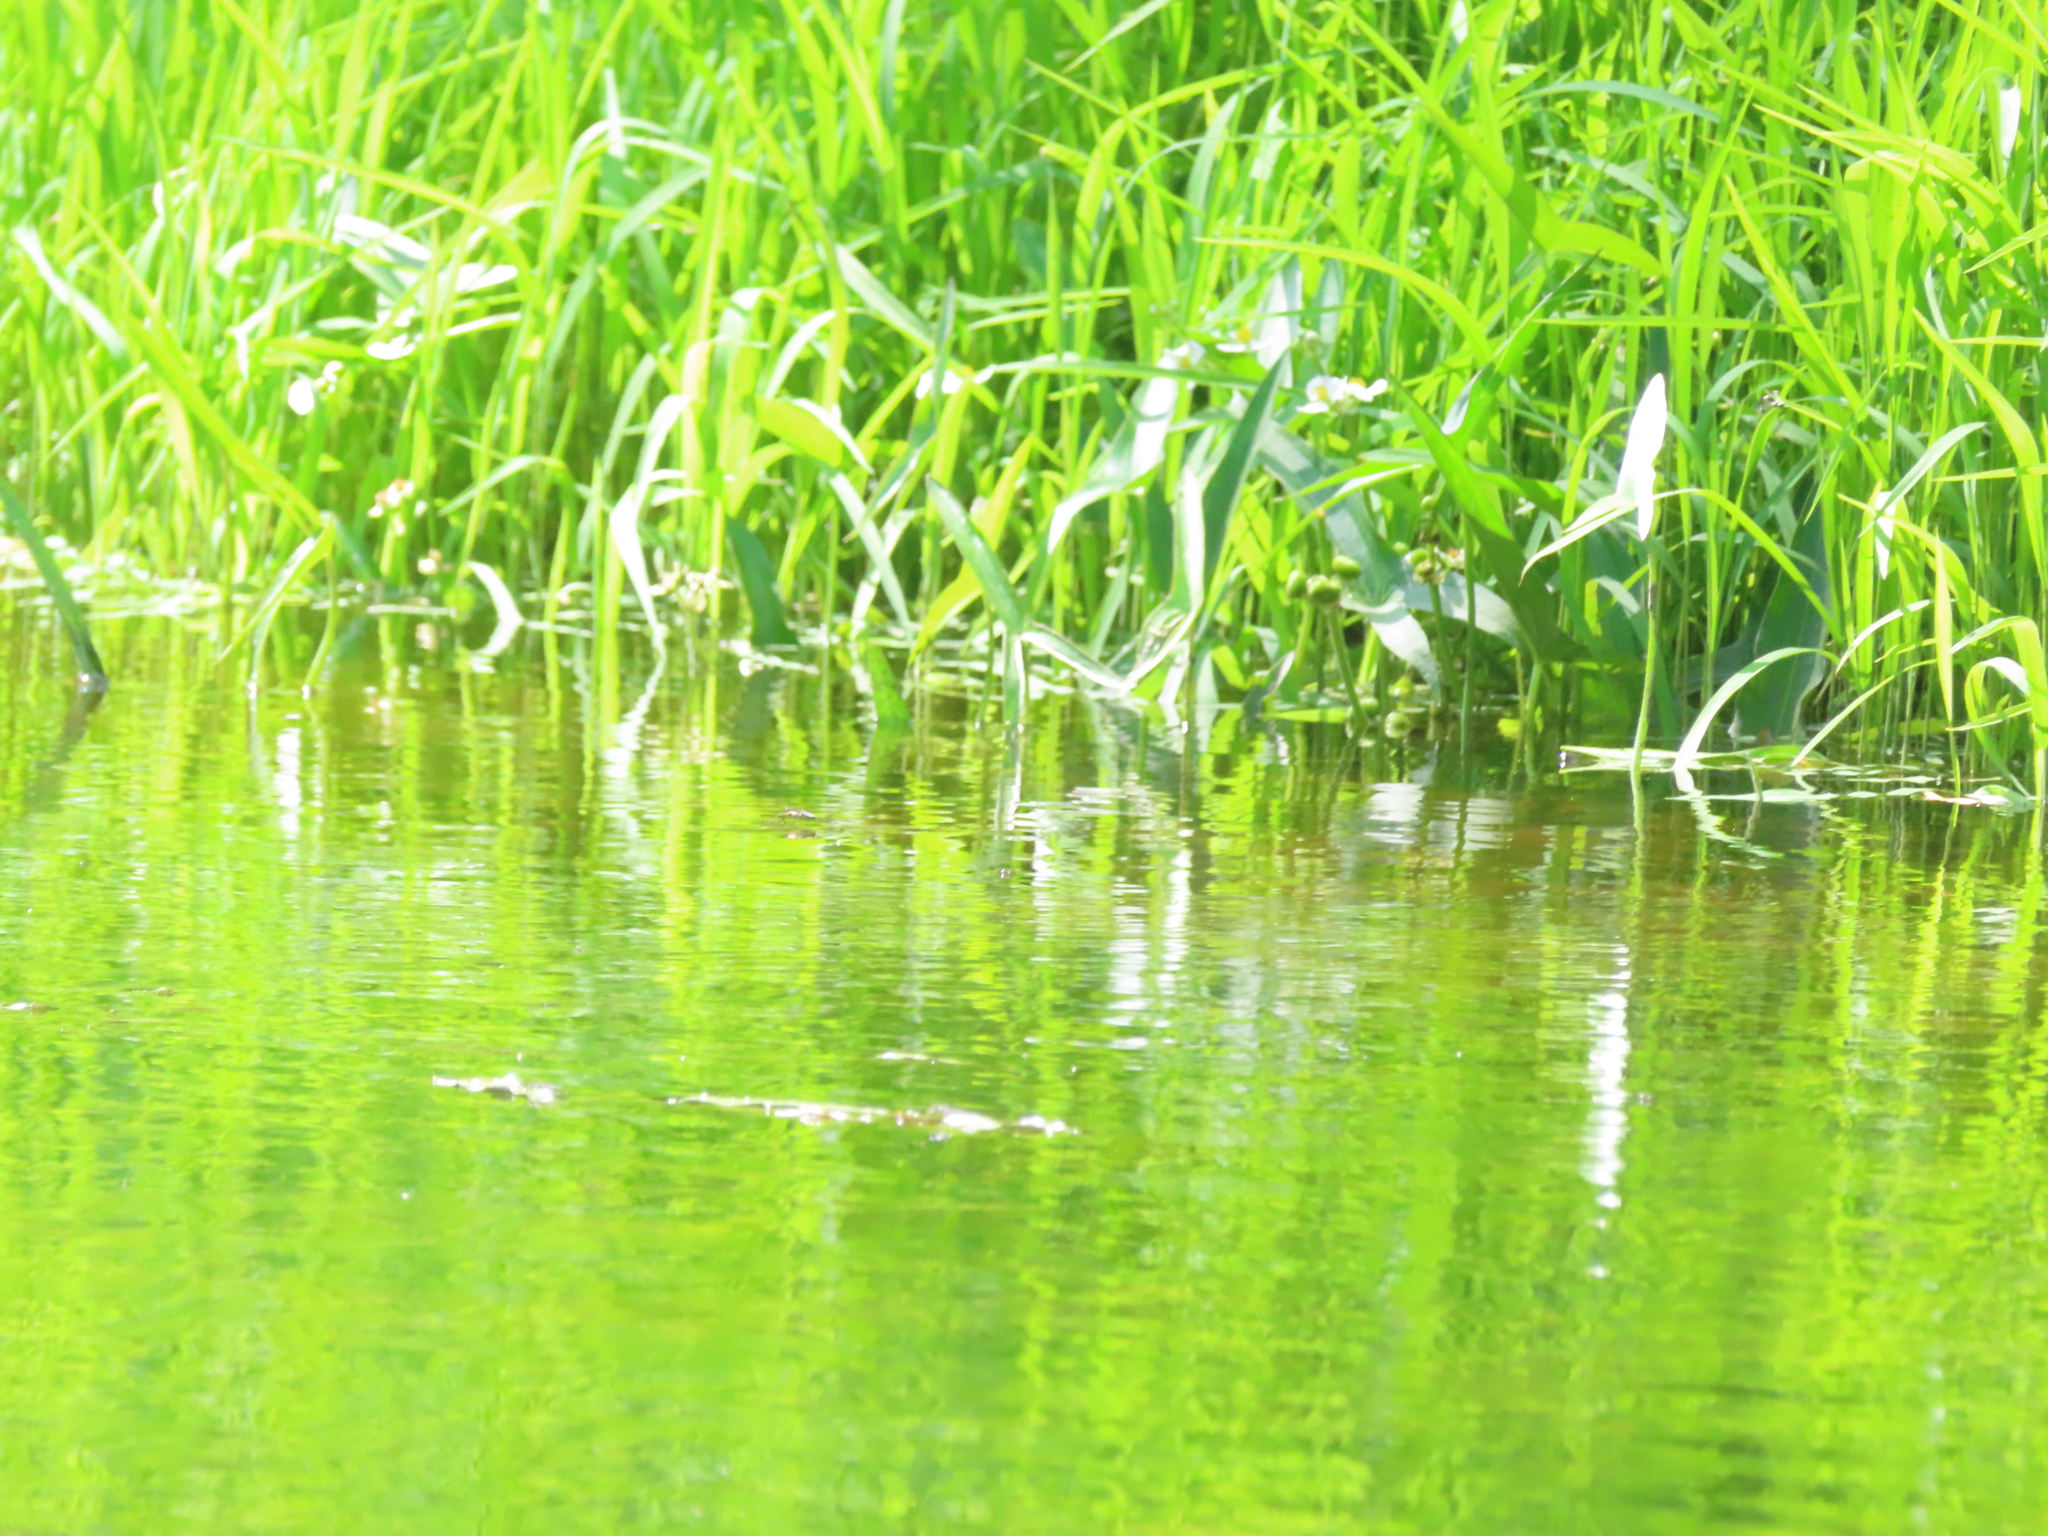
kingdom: Plantae
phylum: Tracheophyta
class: Liliopsida
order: Alismatales
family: Alismataceae
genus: Sagittaria
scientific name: Sagittaria latifolia
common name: Duck-potato
